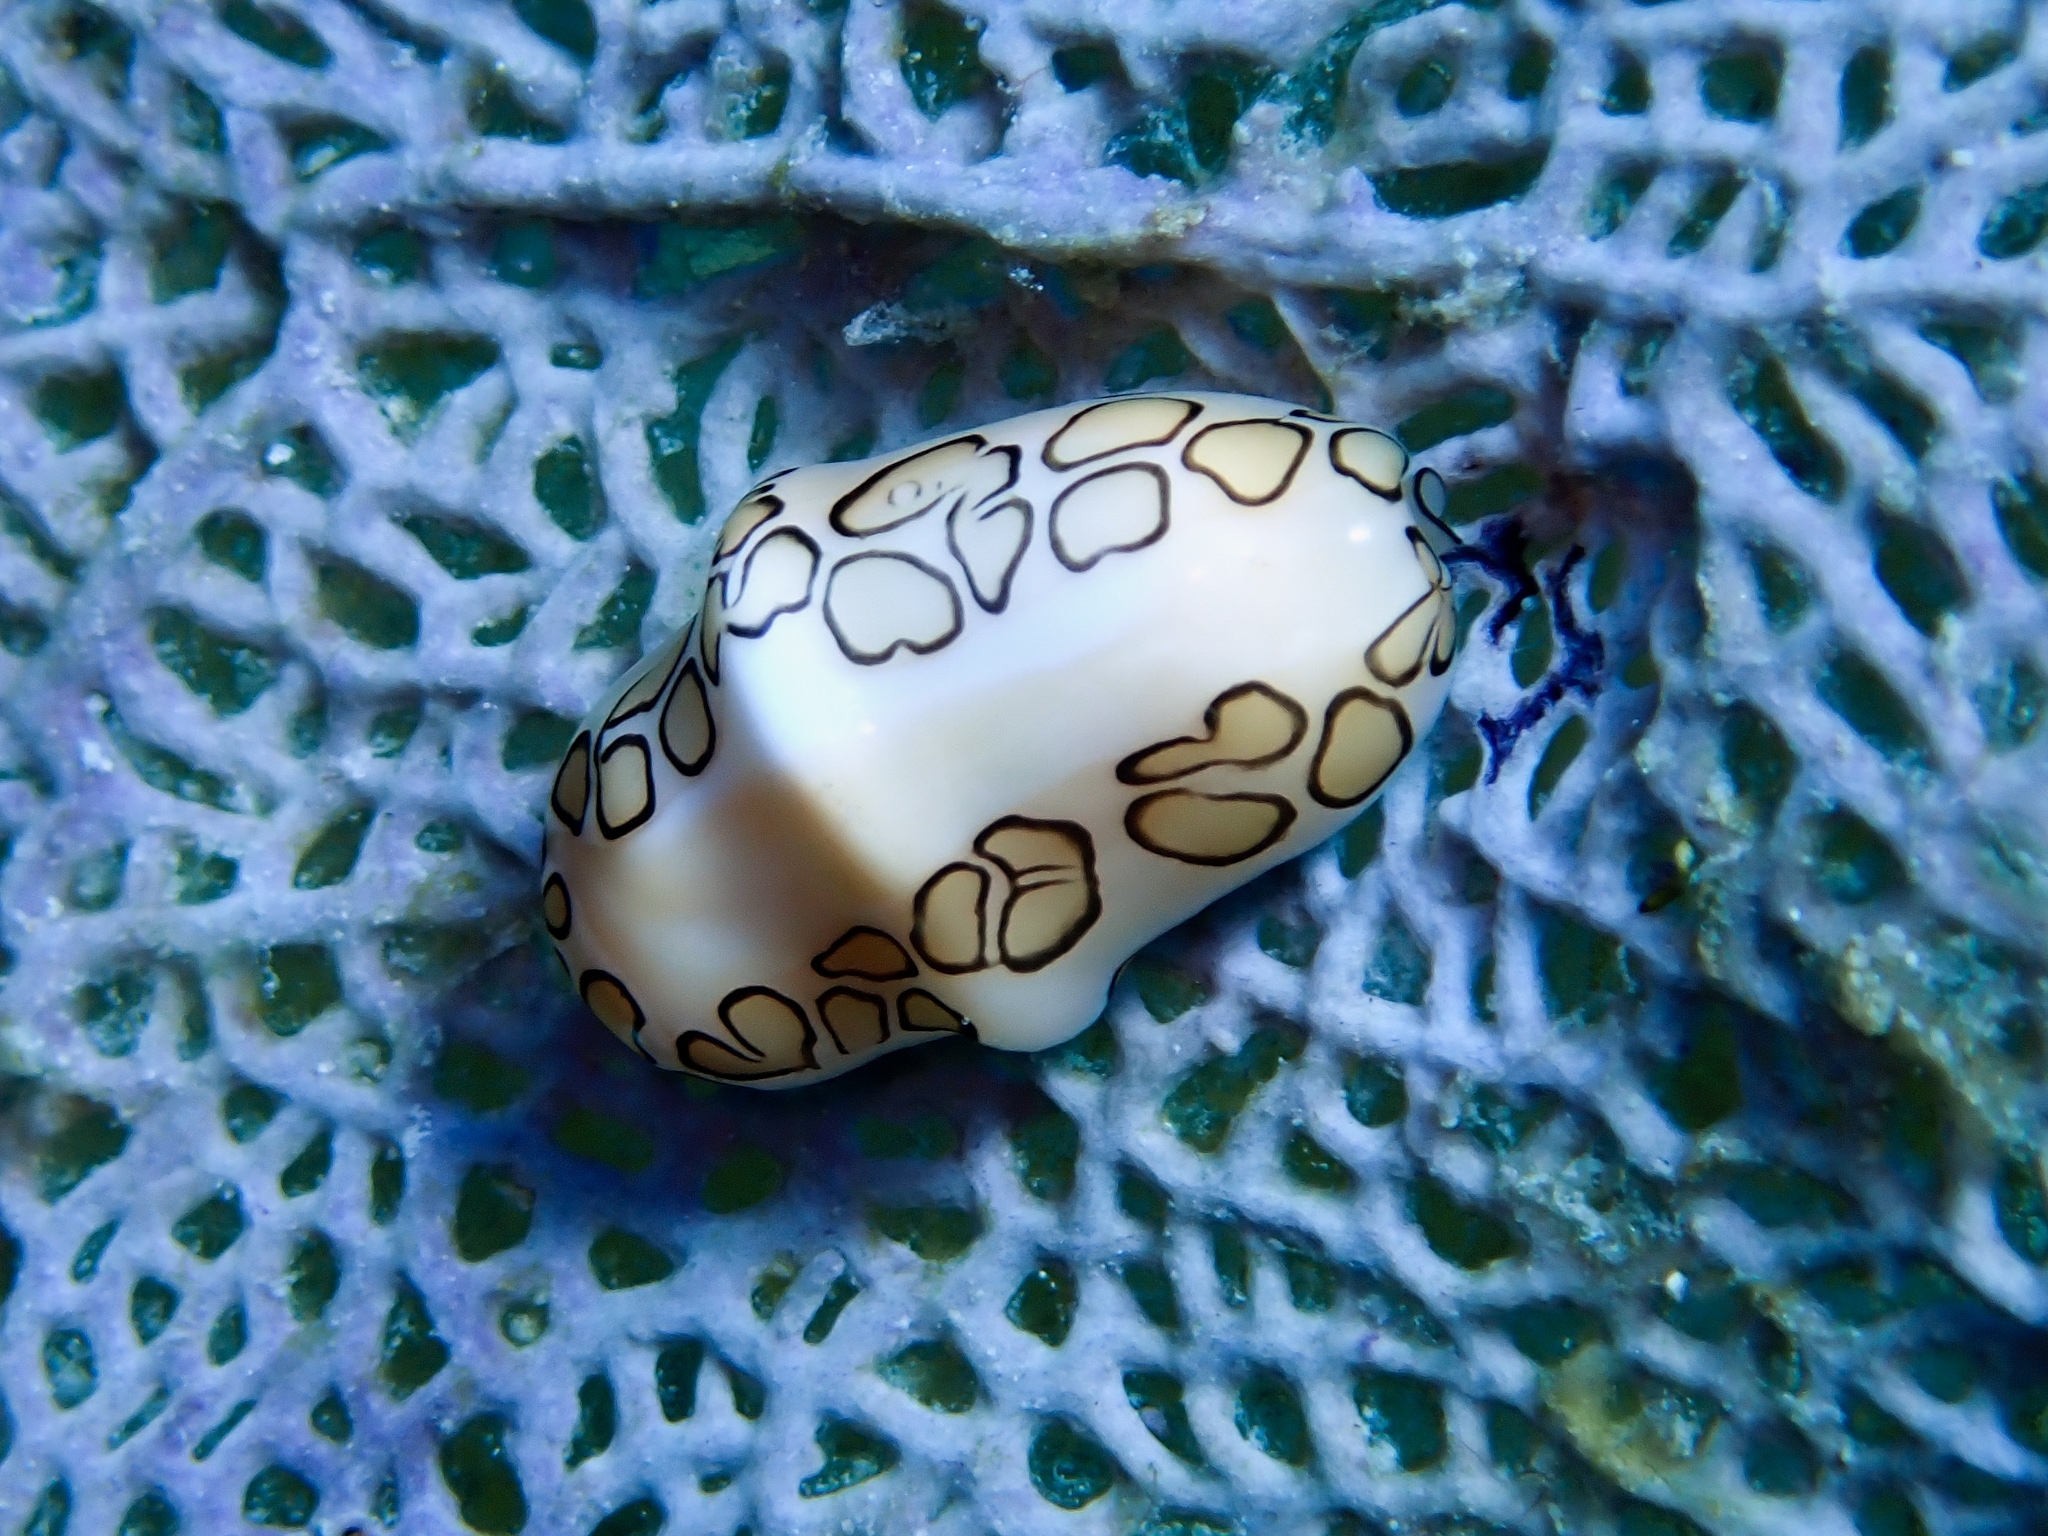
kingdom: Animalia
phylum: Mollusca
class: Gastropoda
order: Littorinimorpha
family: Ovulidae
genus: Cyphoma
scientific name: Cyphoma gibbosum
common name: Flamingo tongue
